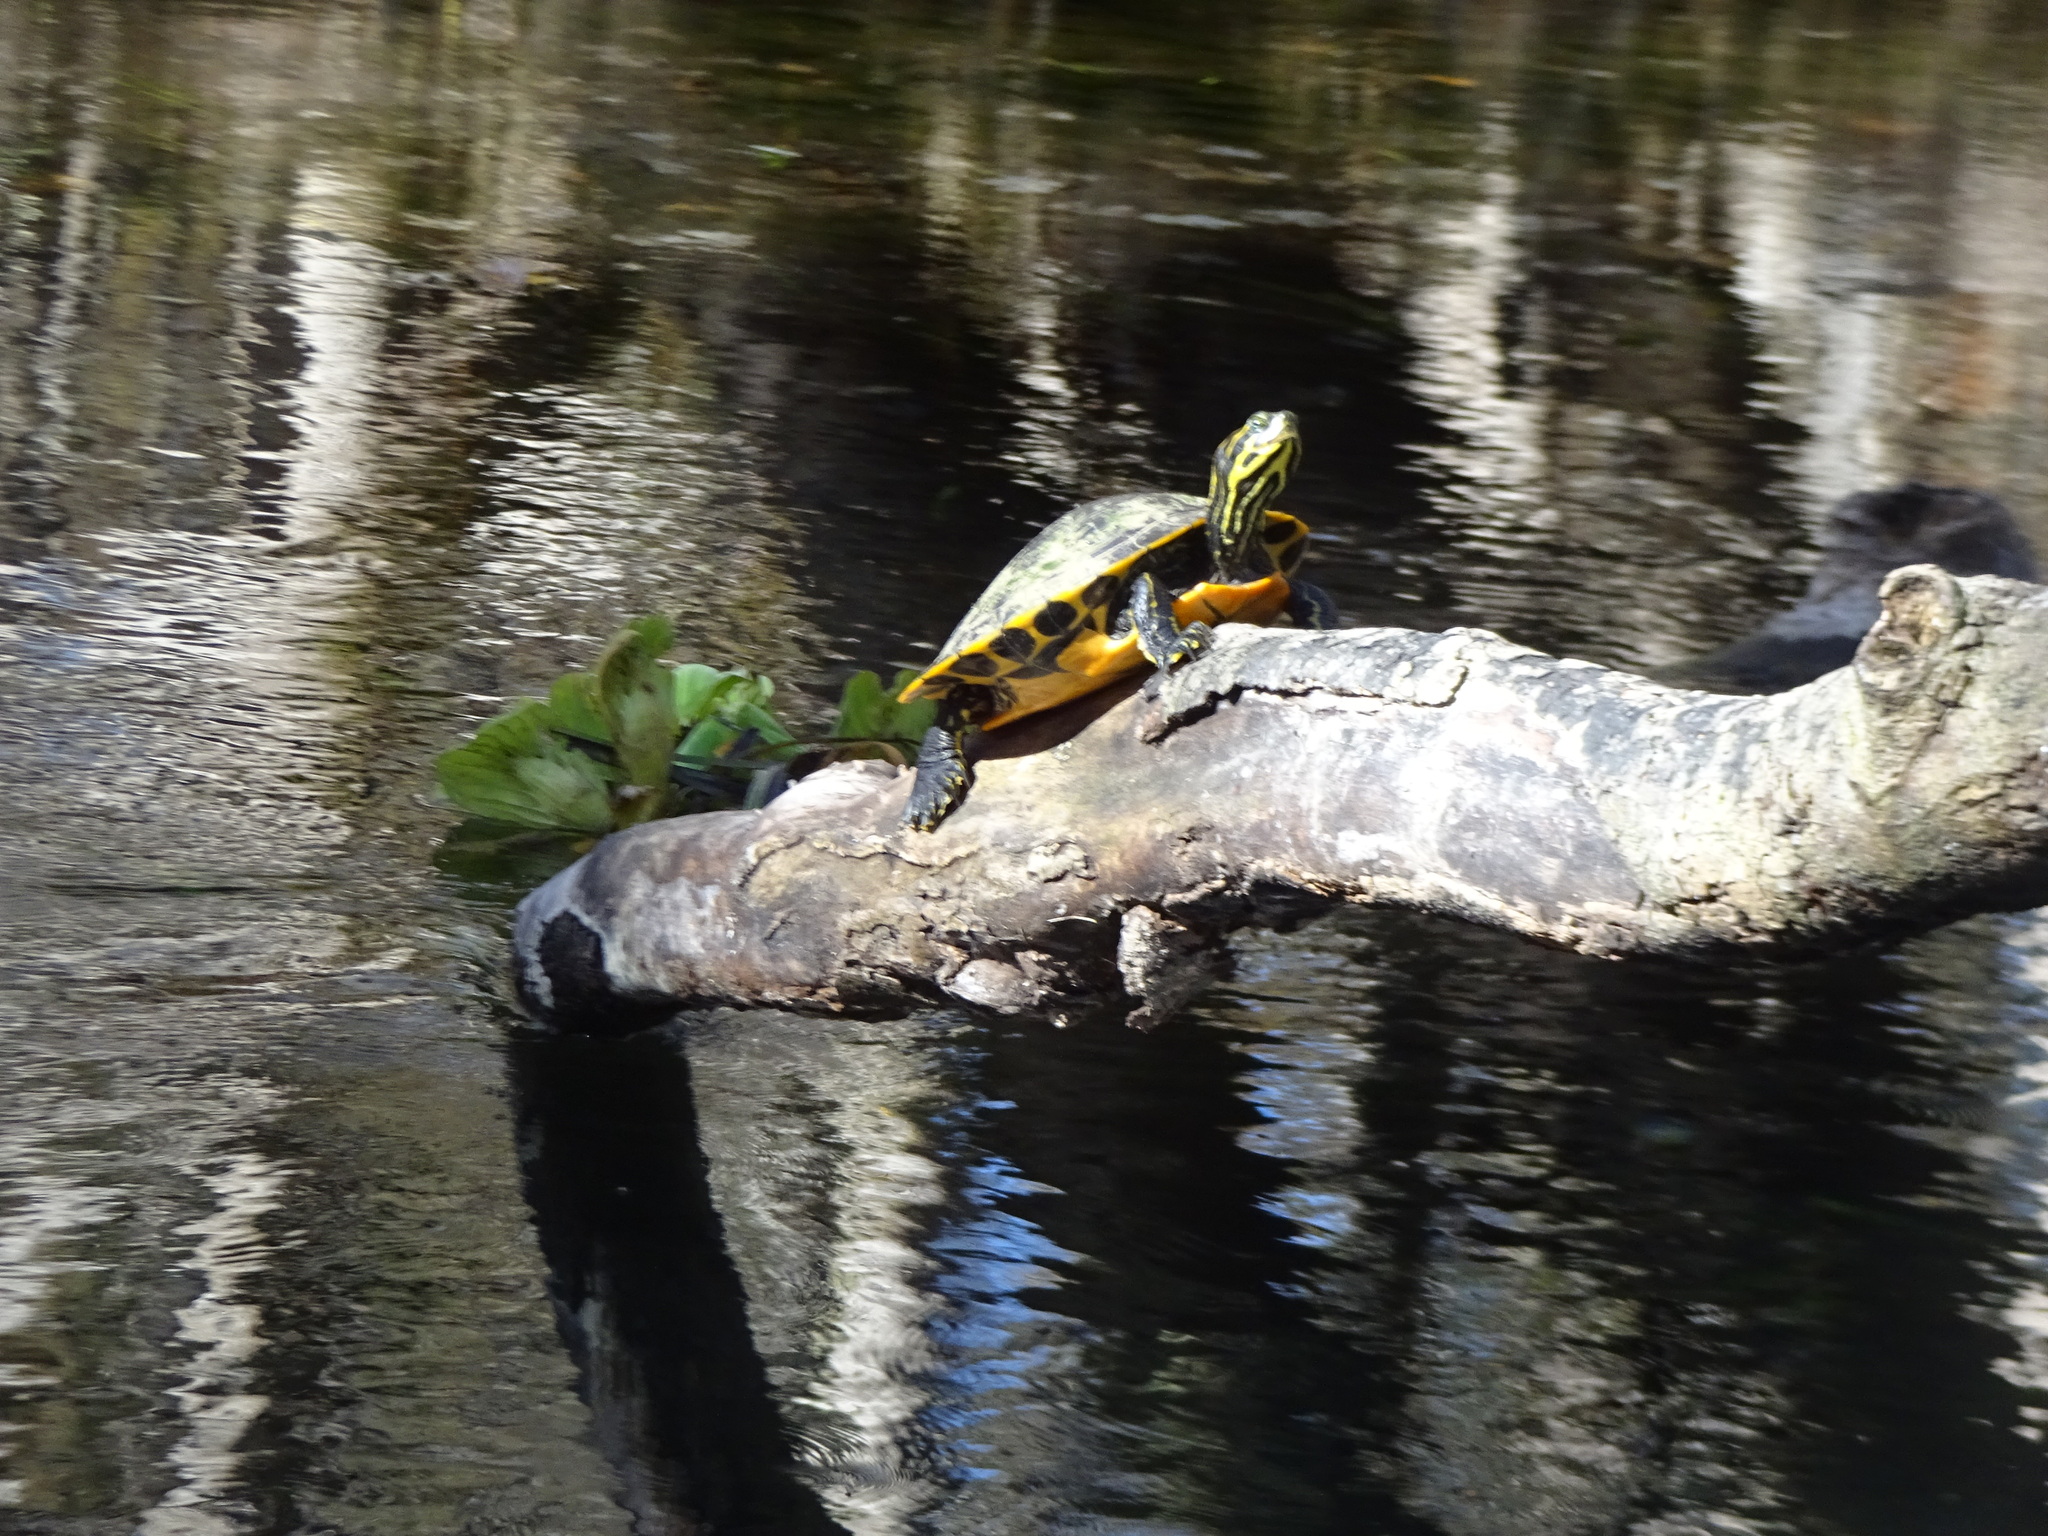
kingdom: Animalia
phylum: Chordata
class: Testudines
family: Emydidae
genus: Pseudemys
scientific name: Pseudemys concinna
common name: Eastern river cooter
